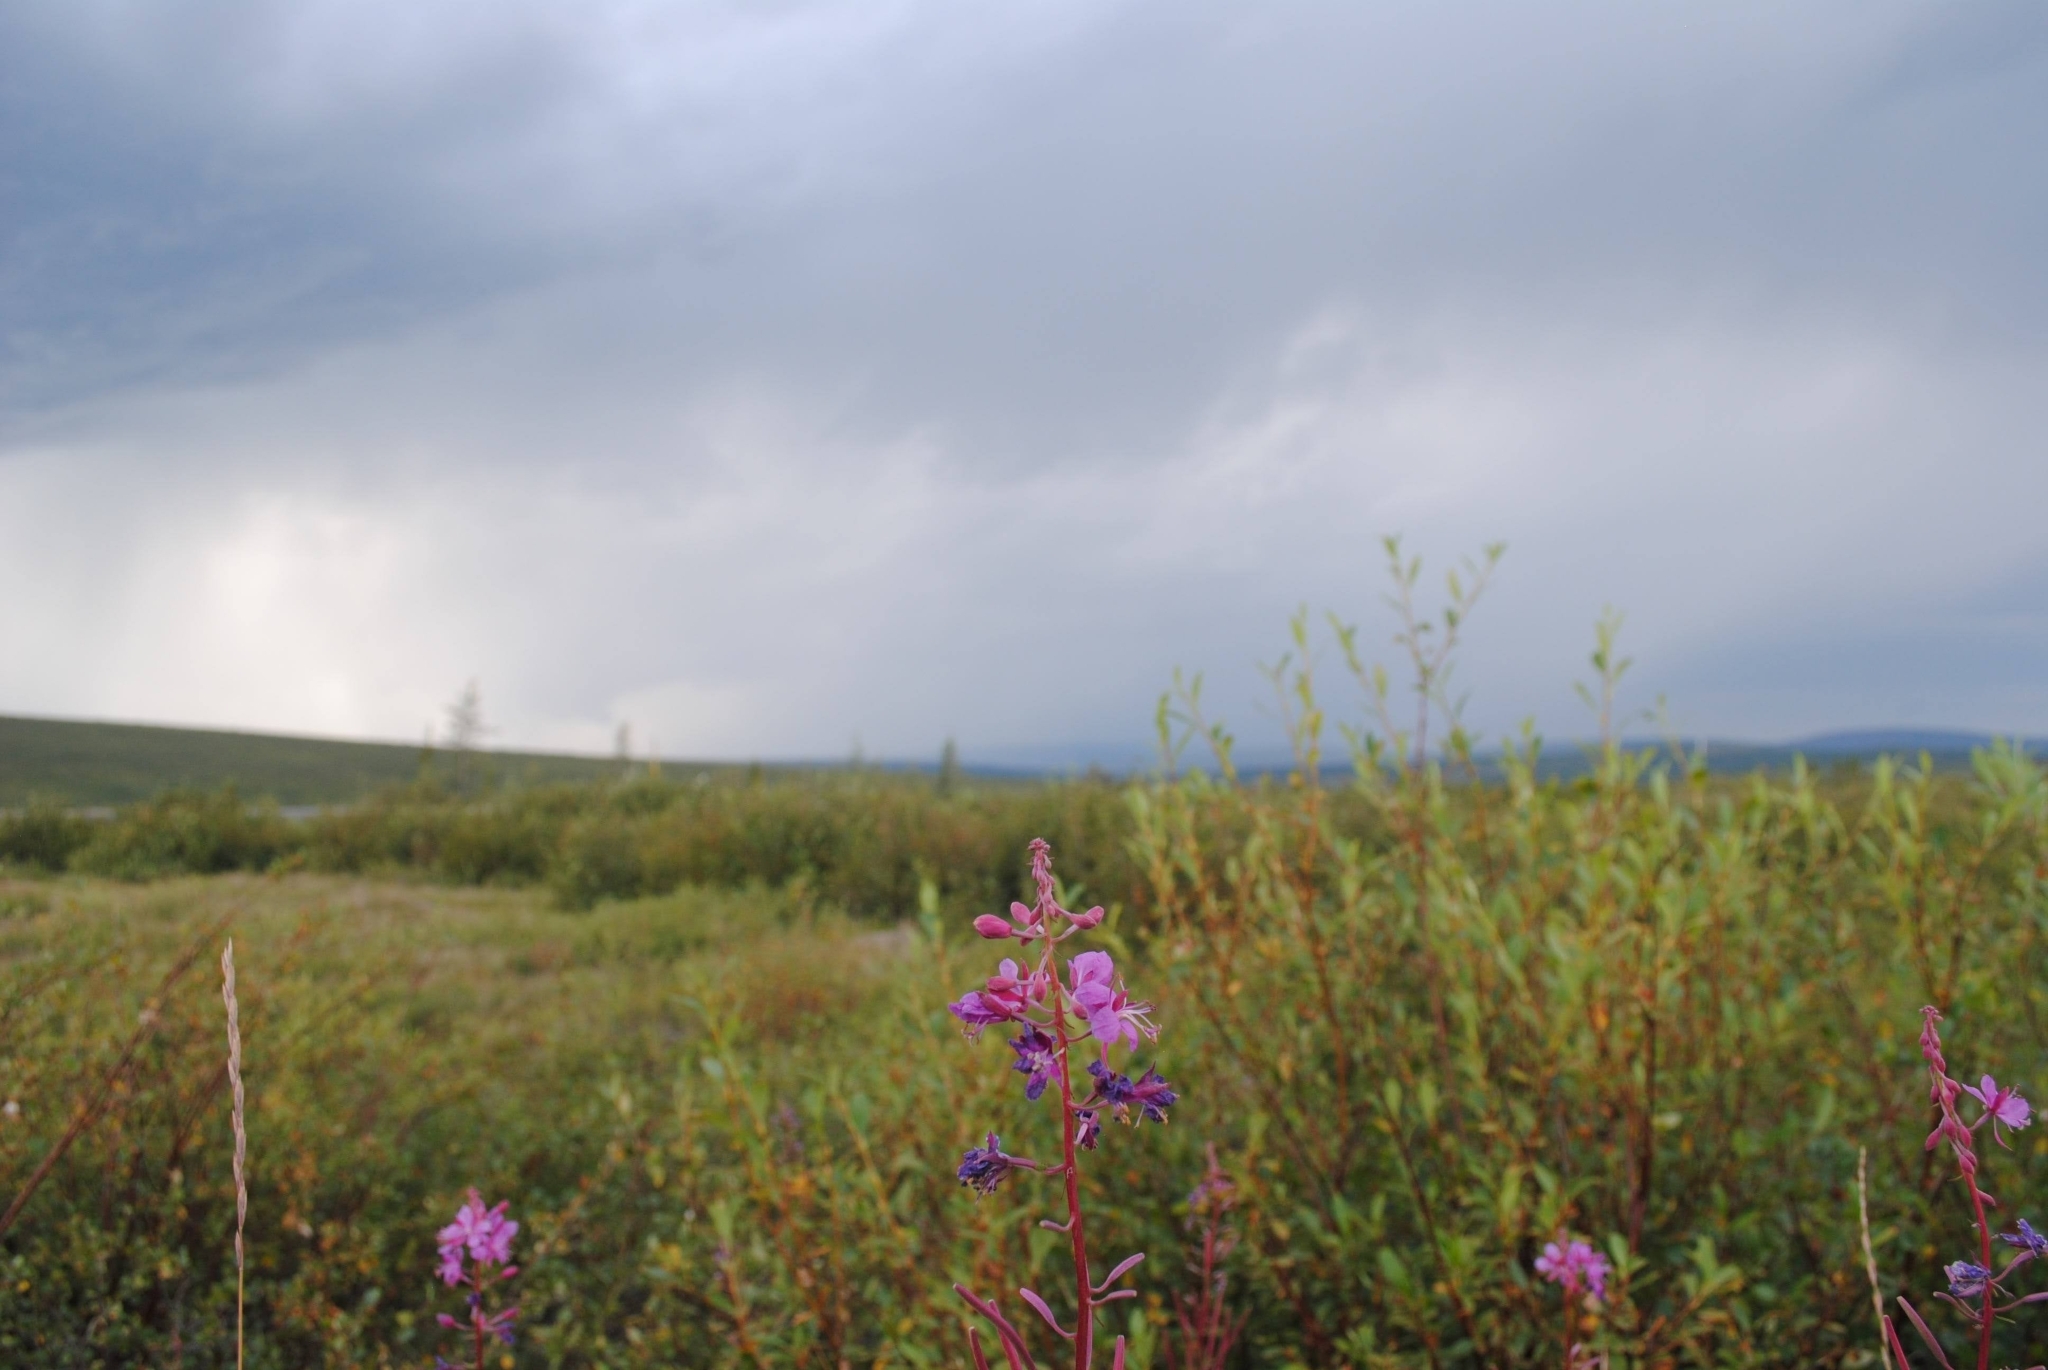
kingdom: Plantae
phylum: Tracheophyta
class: Magnoliopsida
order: Myrtales
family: Onagraceae
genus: Chamaenerion
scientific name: Chamaenerion angustifolium
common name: Fireweed
